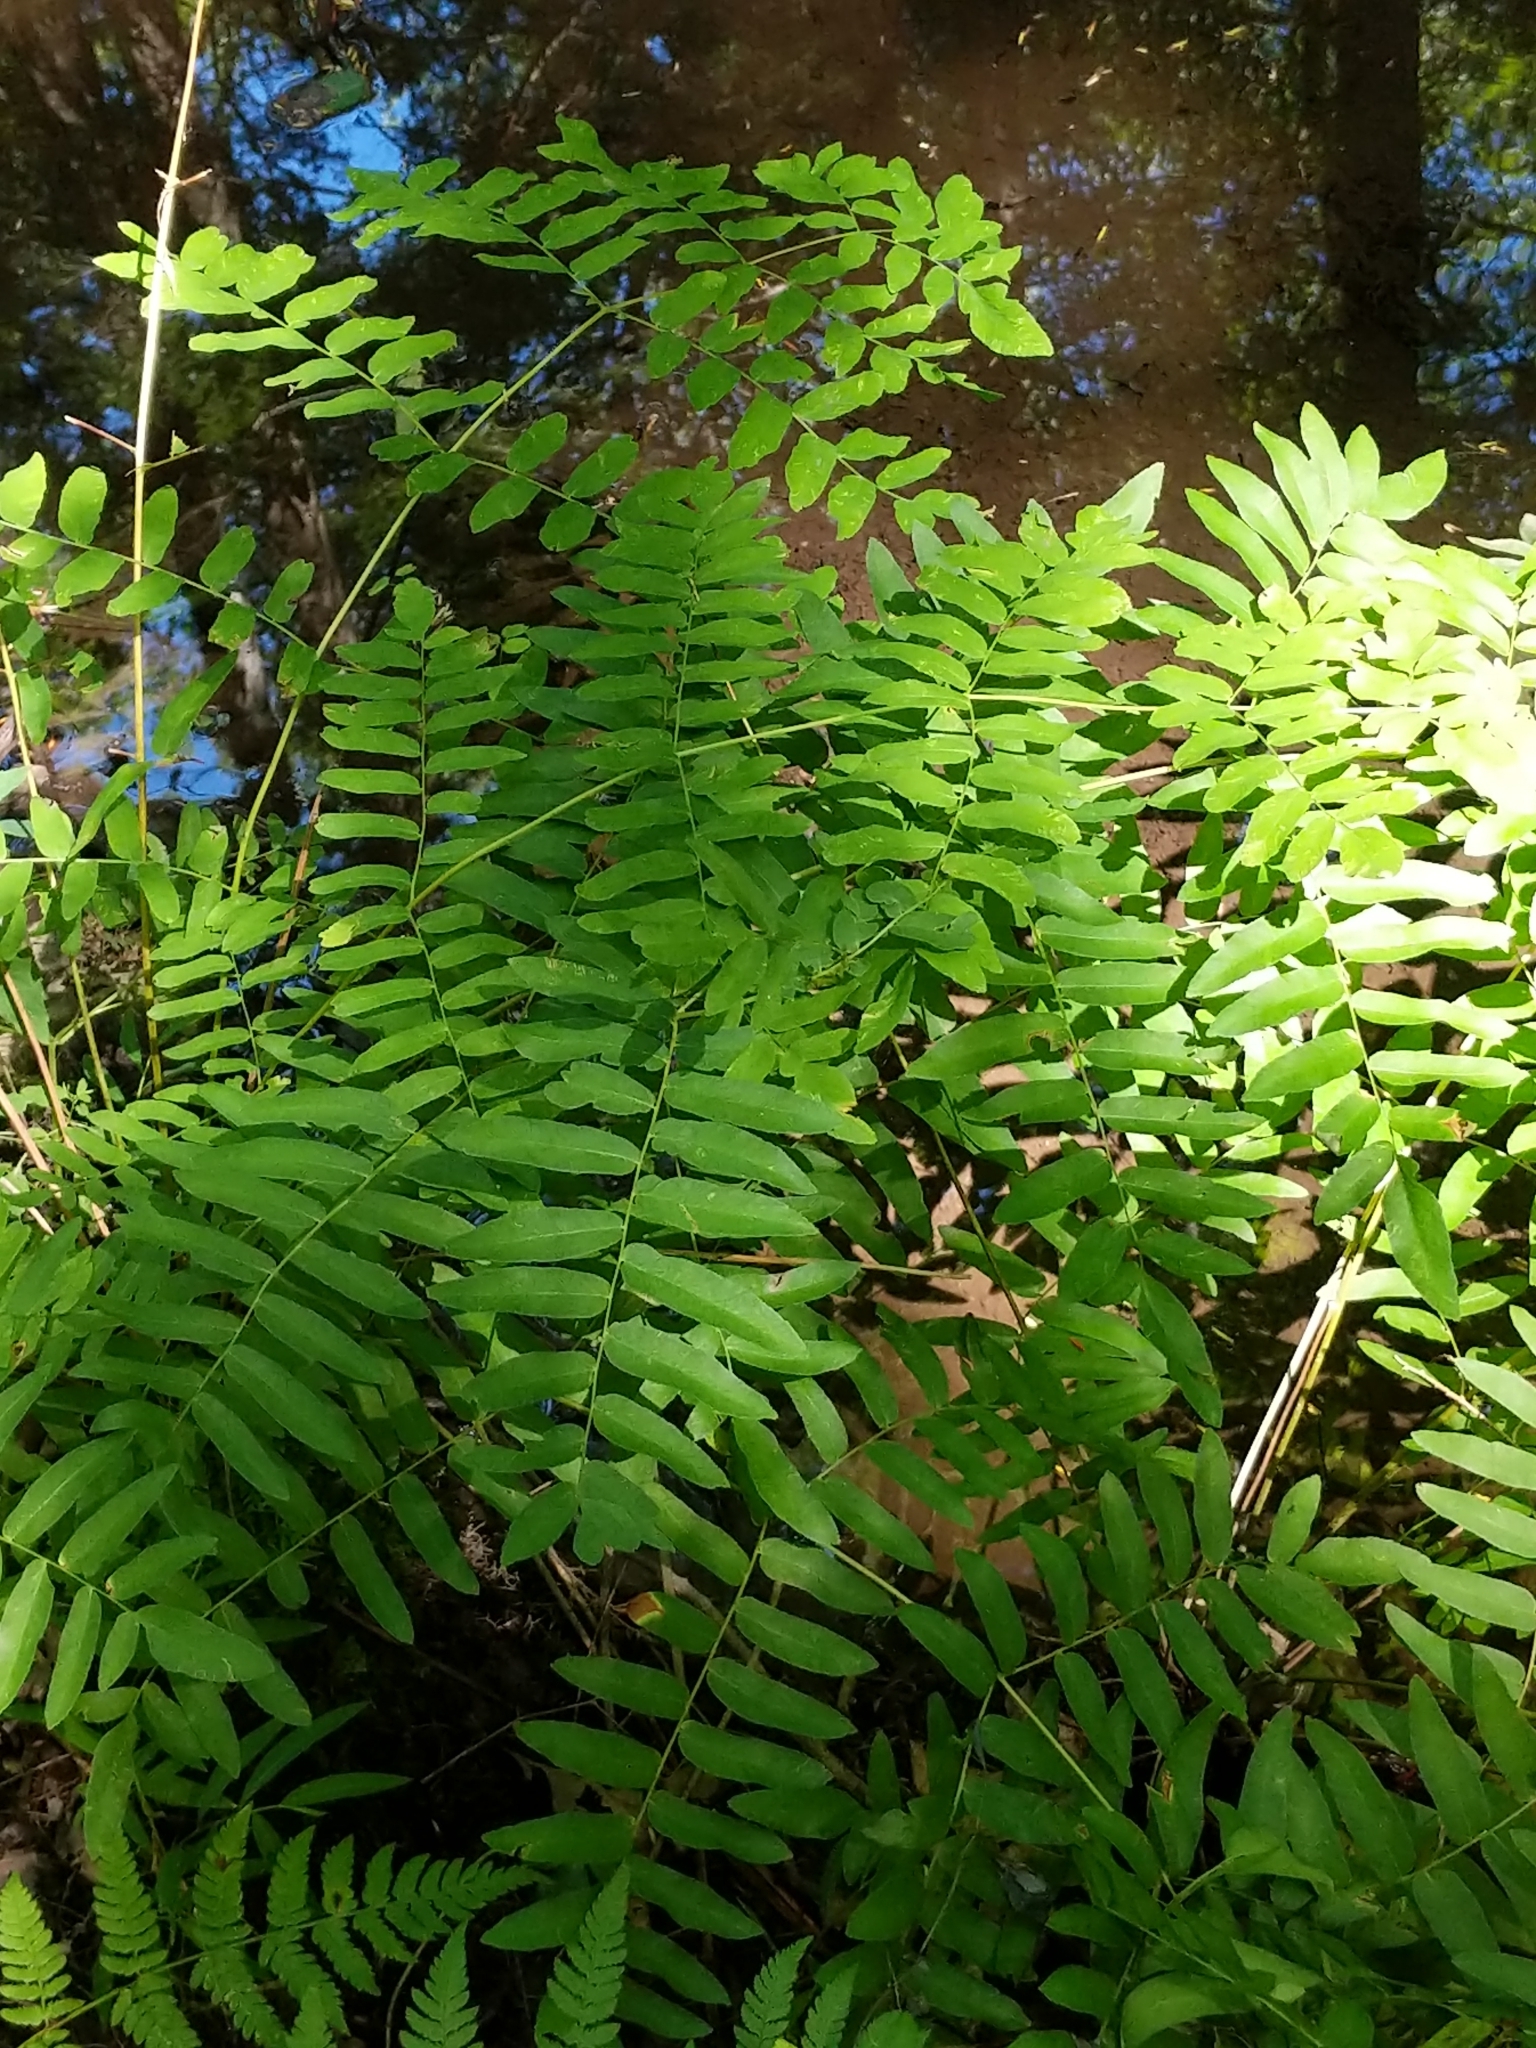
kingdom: Plantae
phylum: Tracheophyta
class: Polypodiopsida
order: Osmundales
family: Osmundaceae
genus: Osmunda
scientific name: Osmunda spectabilis
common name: American royal fern
